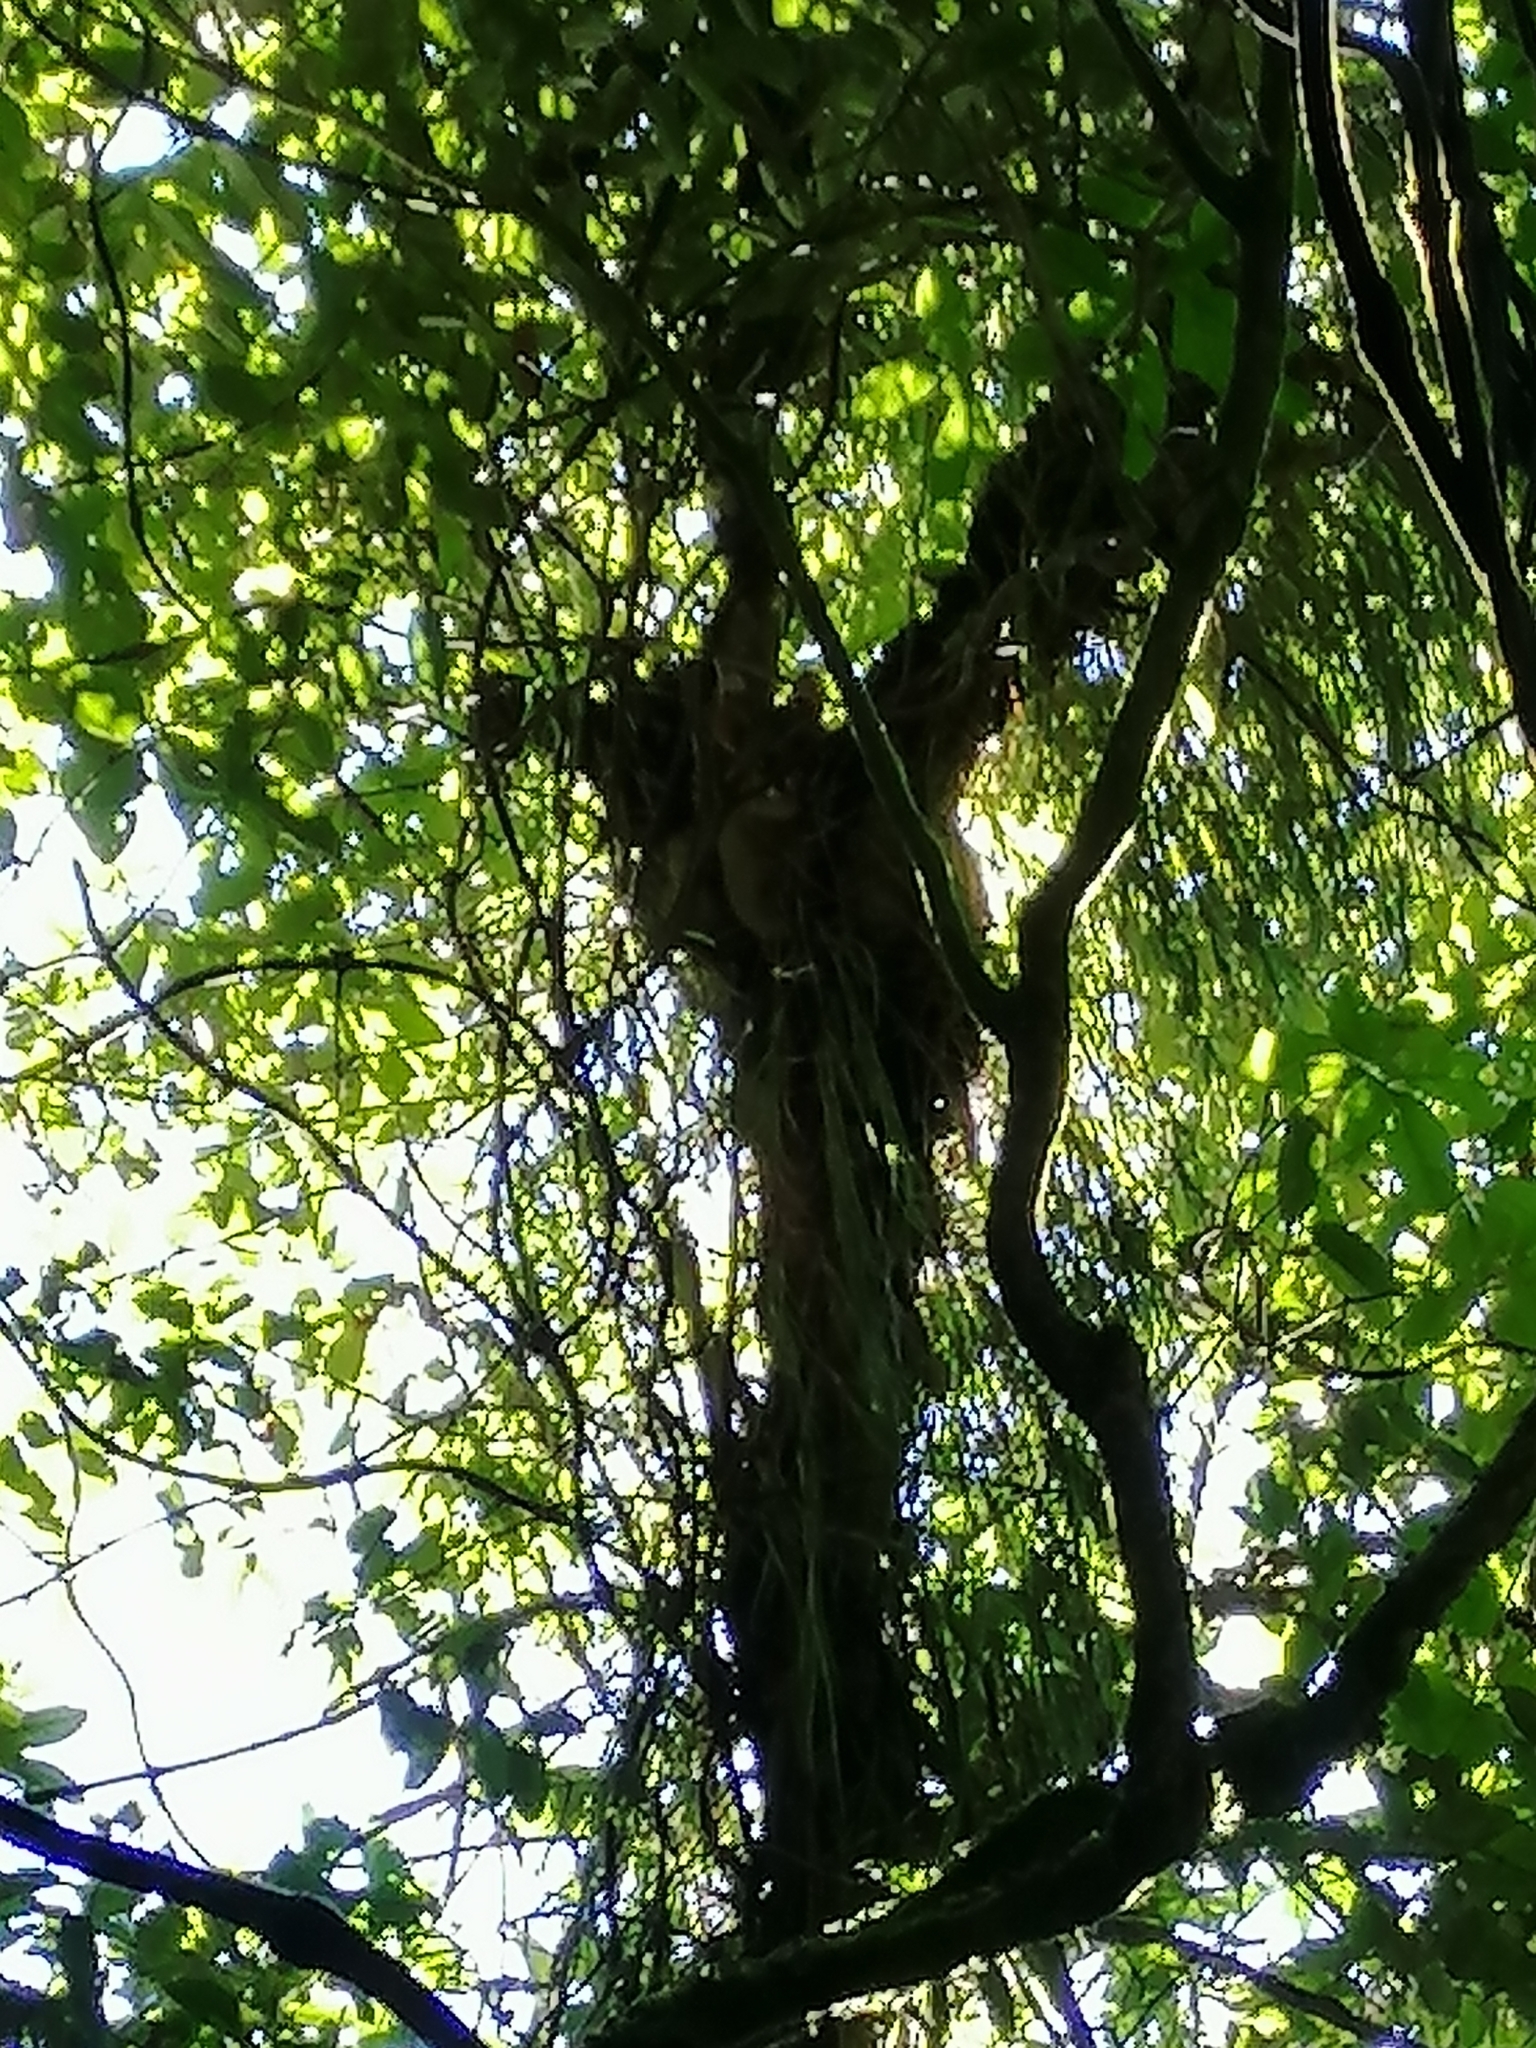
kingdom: Animalia
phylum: Chordata
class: Mammalia
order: Diprotodontia
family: Phalangeridae
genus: Trichosurus
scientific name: Trichosurus vulpecula
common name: Common brushtail
